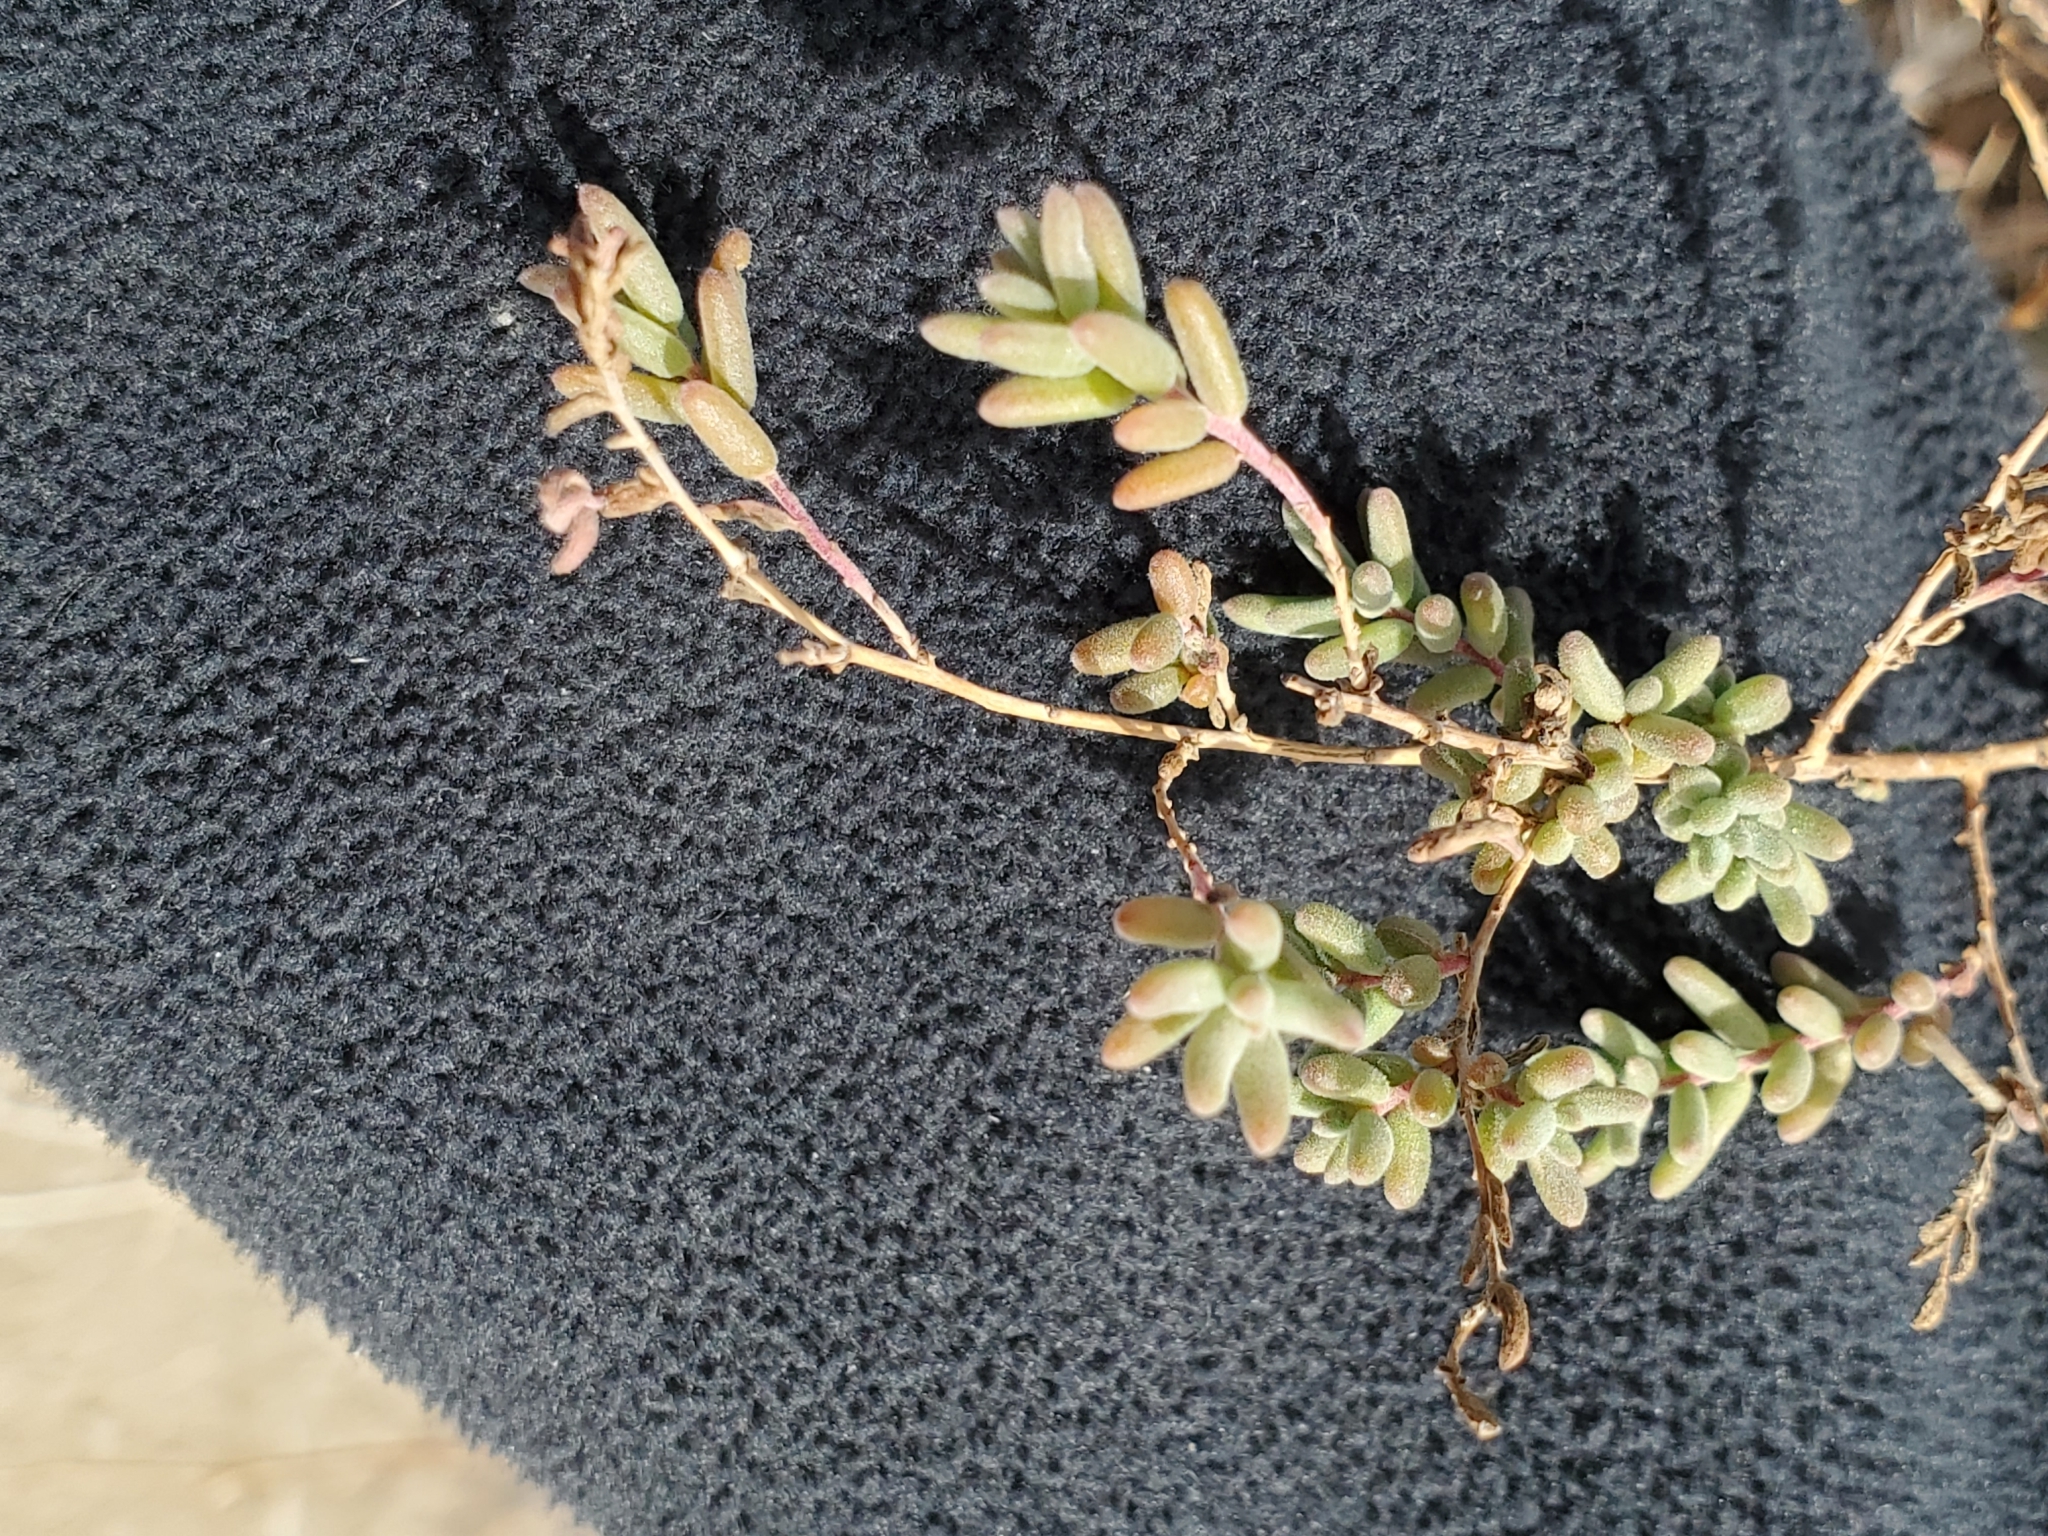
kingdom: Plantae
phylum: Tracheophyta
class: Magnoliopsida
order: Caryophyllales
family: Amaranthaceae
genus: Suaeda
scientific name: Suaeda nigra
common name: Bush seepweed
